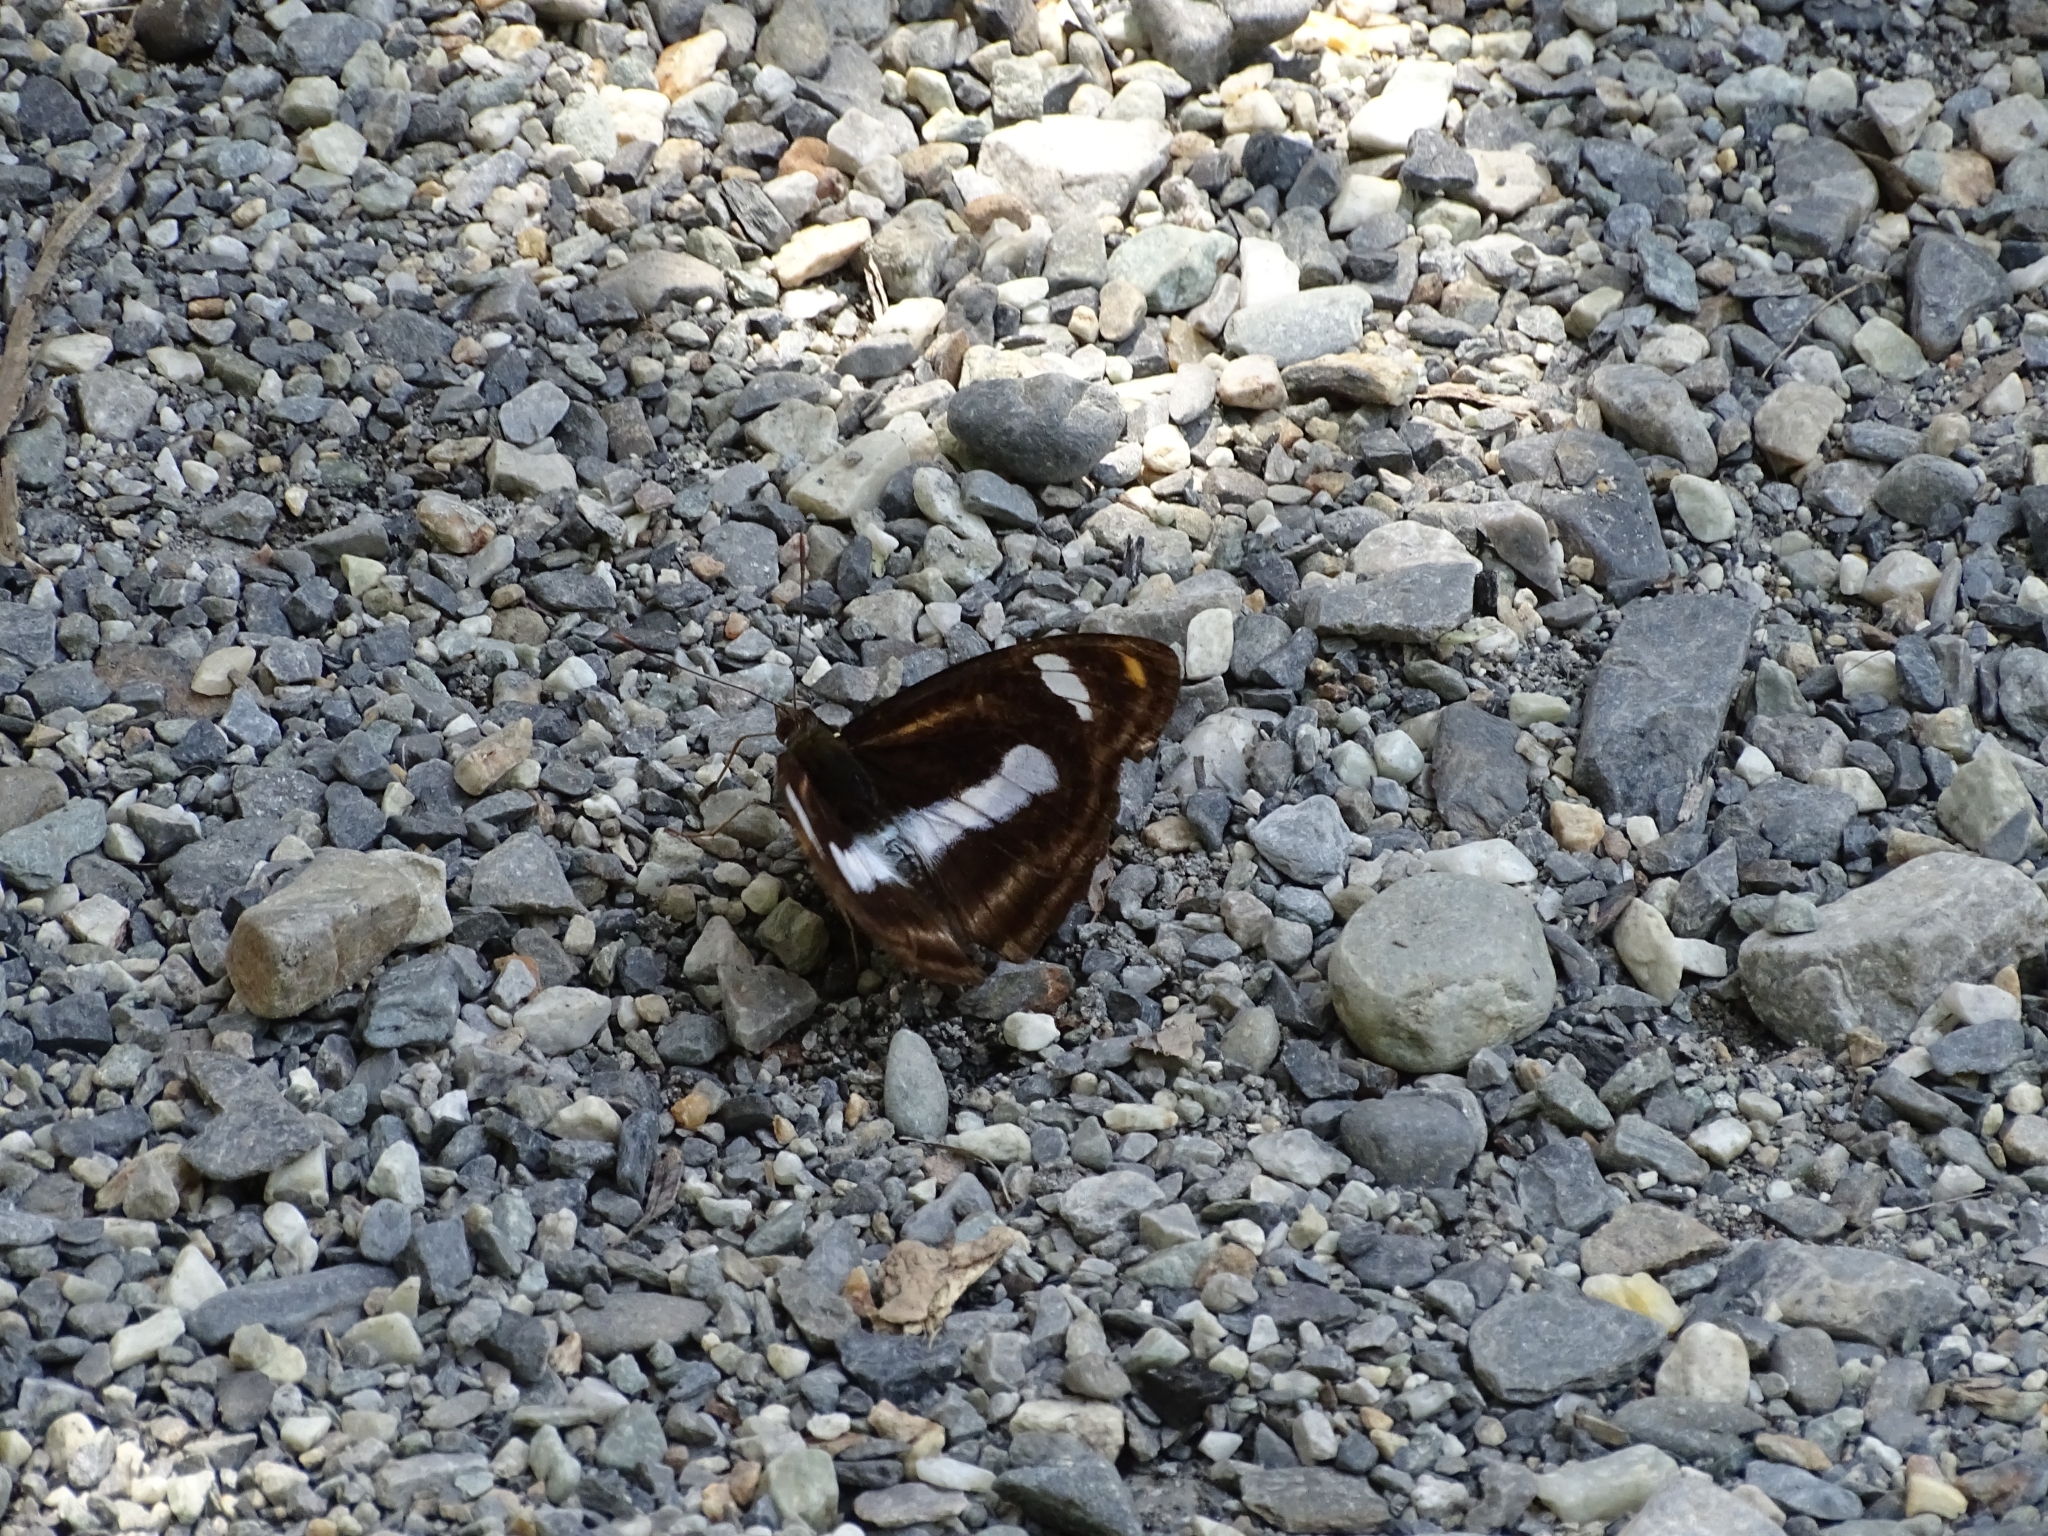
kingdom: Animalia
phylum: Arthropoda
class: Insecta
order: Lepidoptera
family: Nymphalidae
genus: Pantoporia
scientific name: Pantoporia cama
